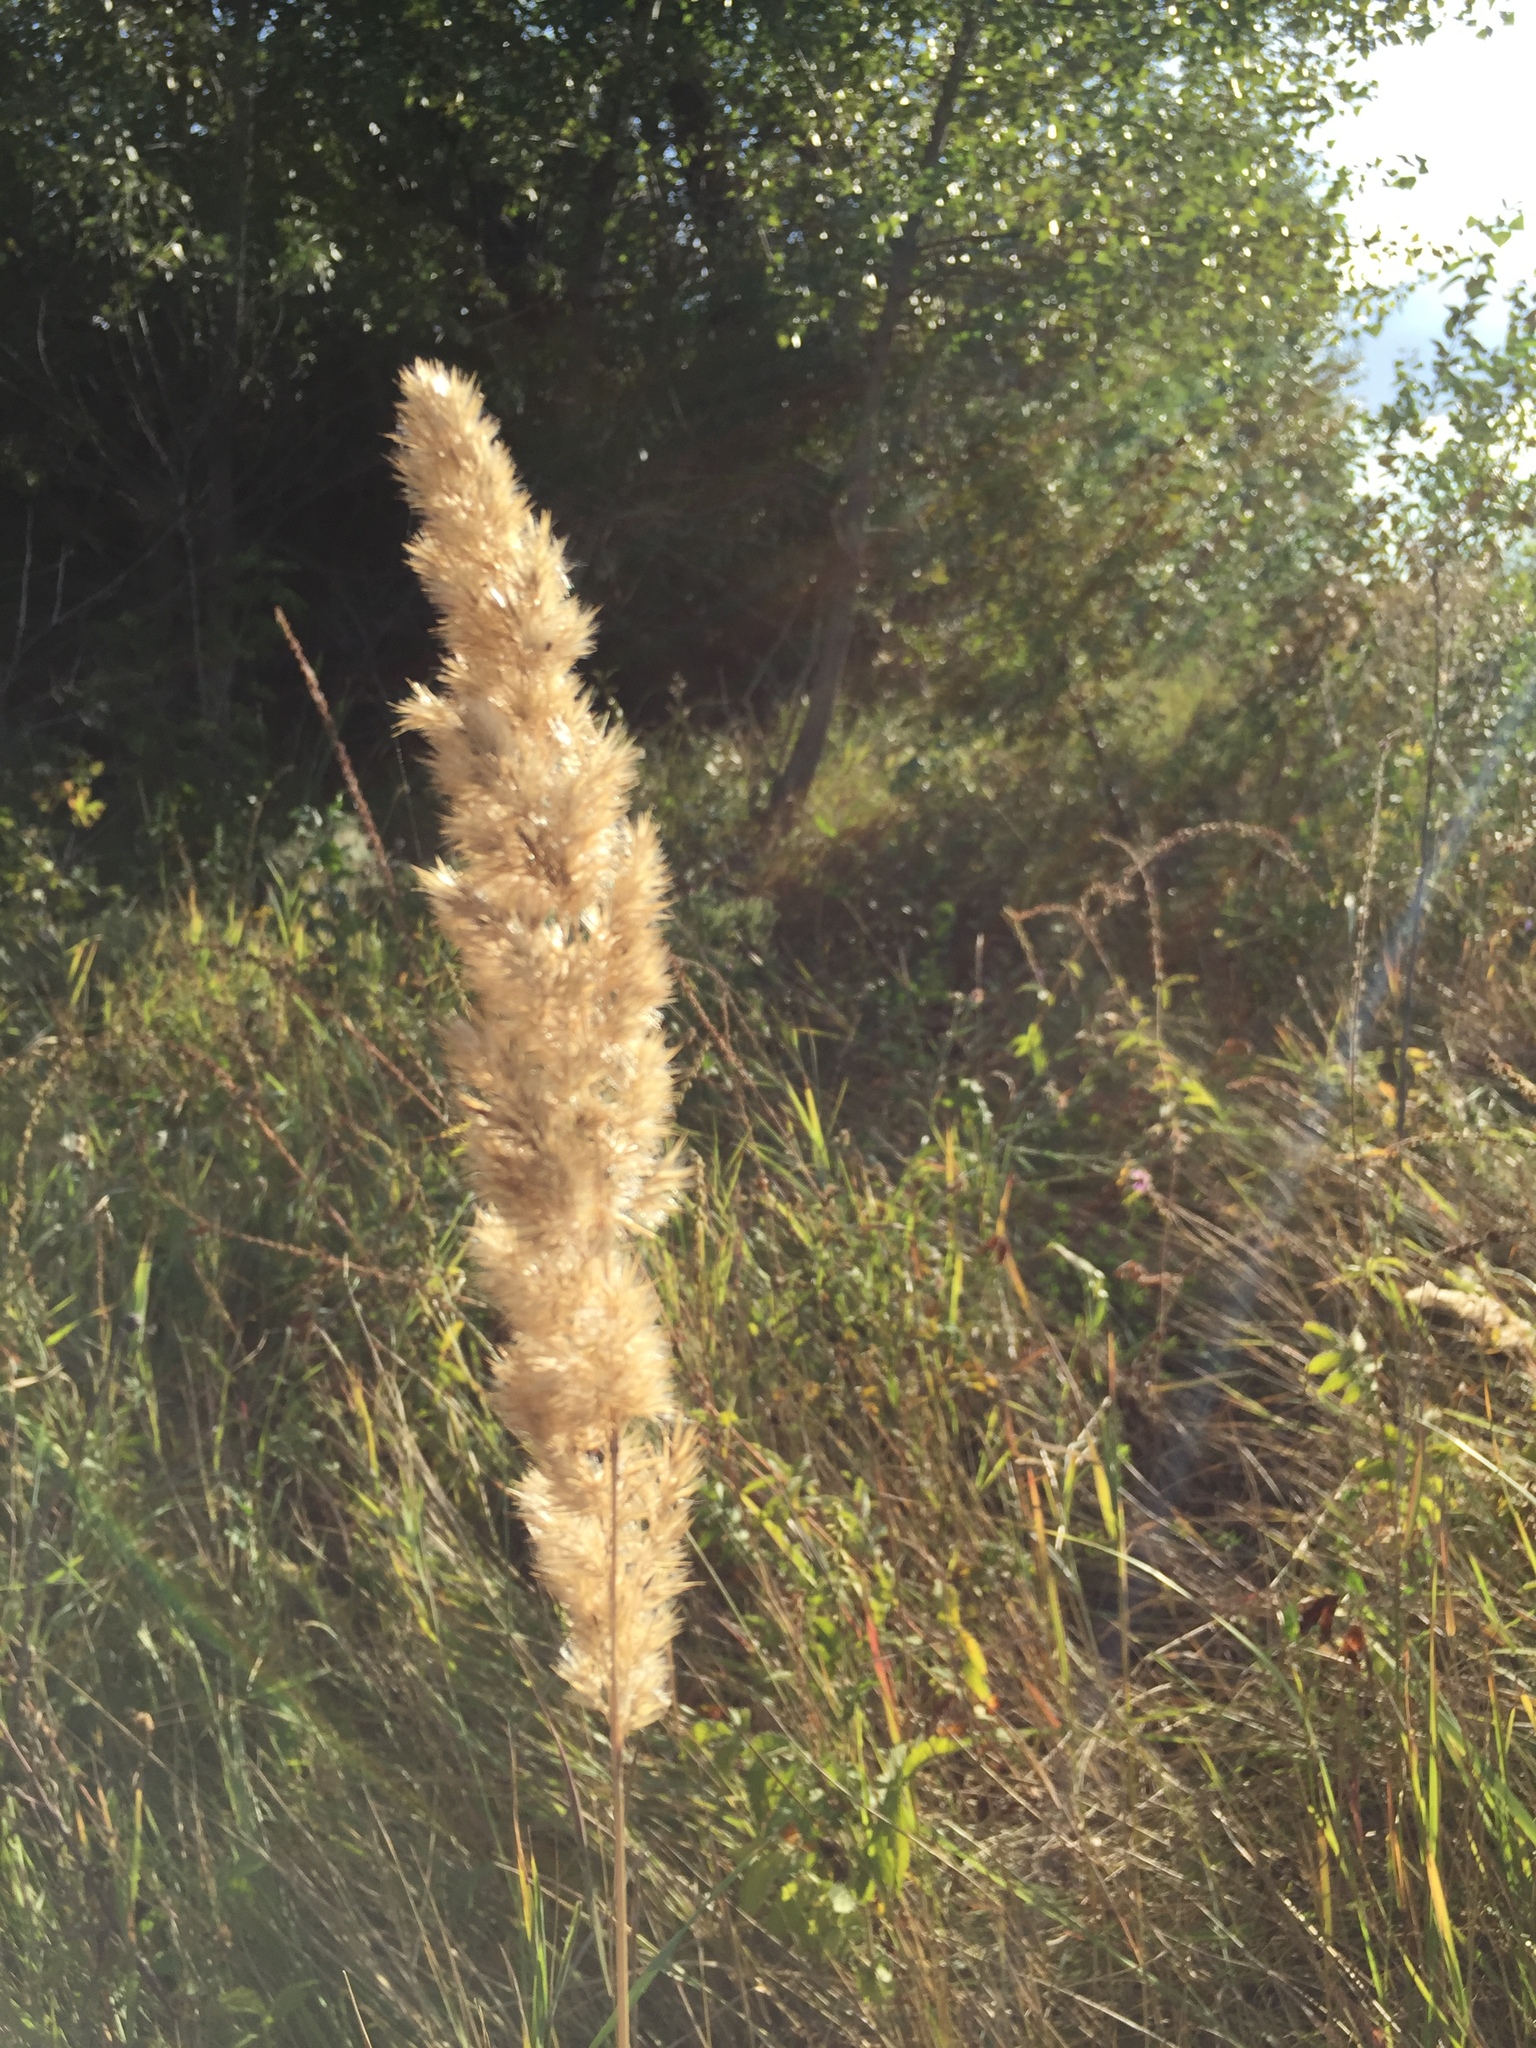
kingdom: Plantae
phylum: Tracheophyta
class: Liliopsida
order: Poales
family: Poaceae
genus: Calamagrostis
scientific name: Calamagrostis epigejos
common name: Wood small-reed
